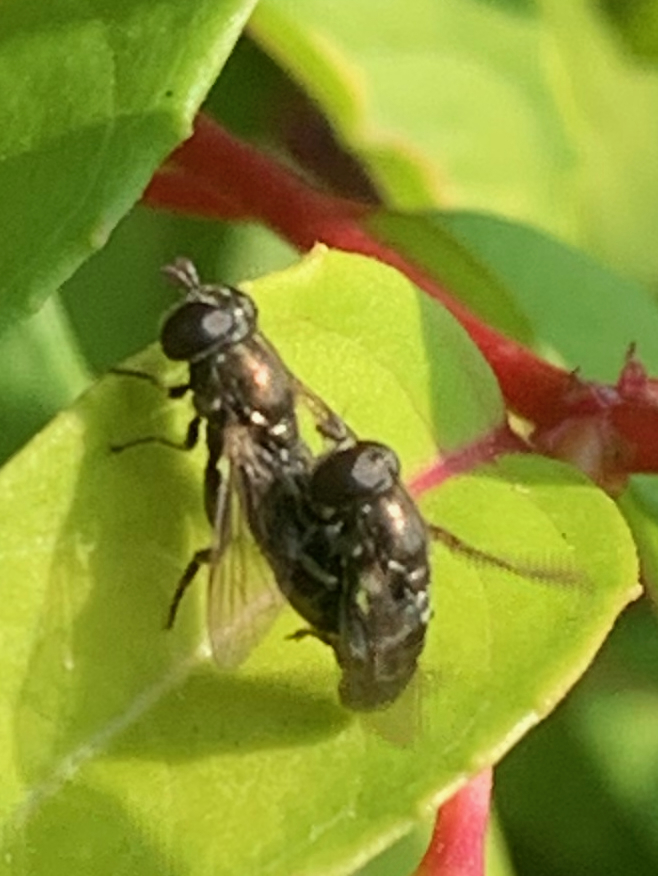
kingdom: Animalia
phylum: Arthropoda
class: Insecta
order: Diptera
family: Syrphidae
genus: Eumerus
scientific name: Eumerus
